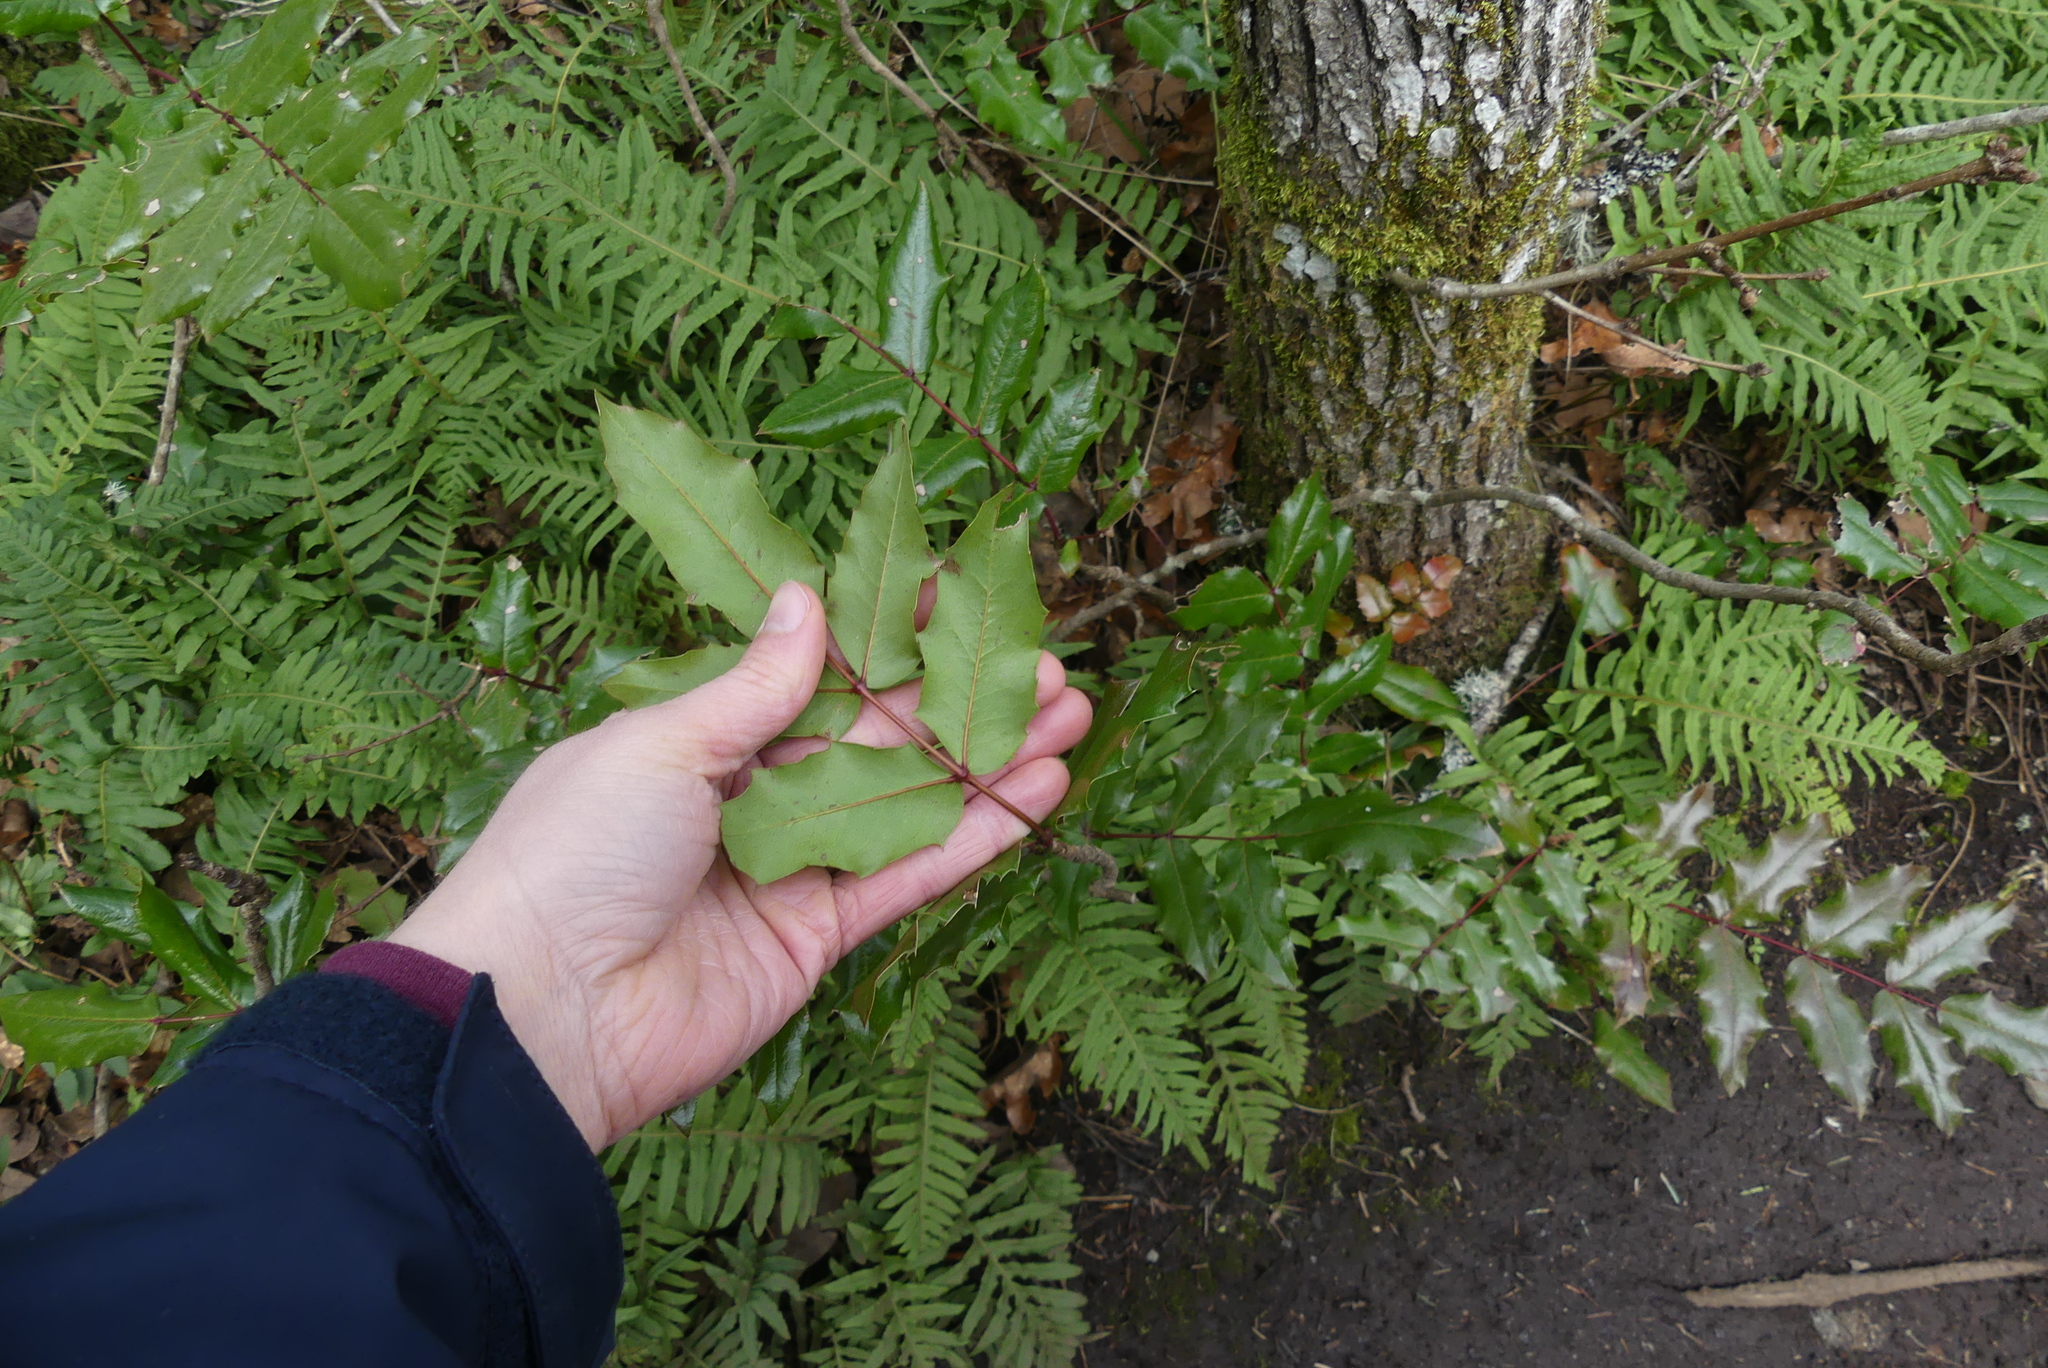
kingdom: Plantae
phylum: Tracheophyta
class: Magnoliopsida
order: Ranunculales
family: Berberidaceae
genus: Mahonia
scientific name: Mahonia aquifolium
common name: Oregon-grape
